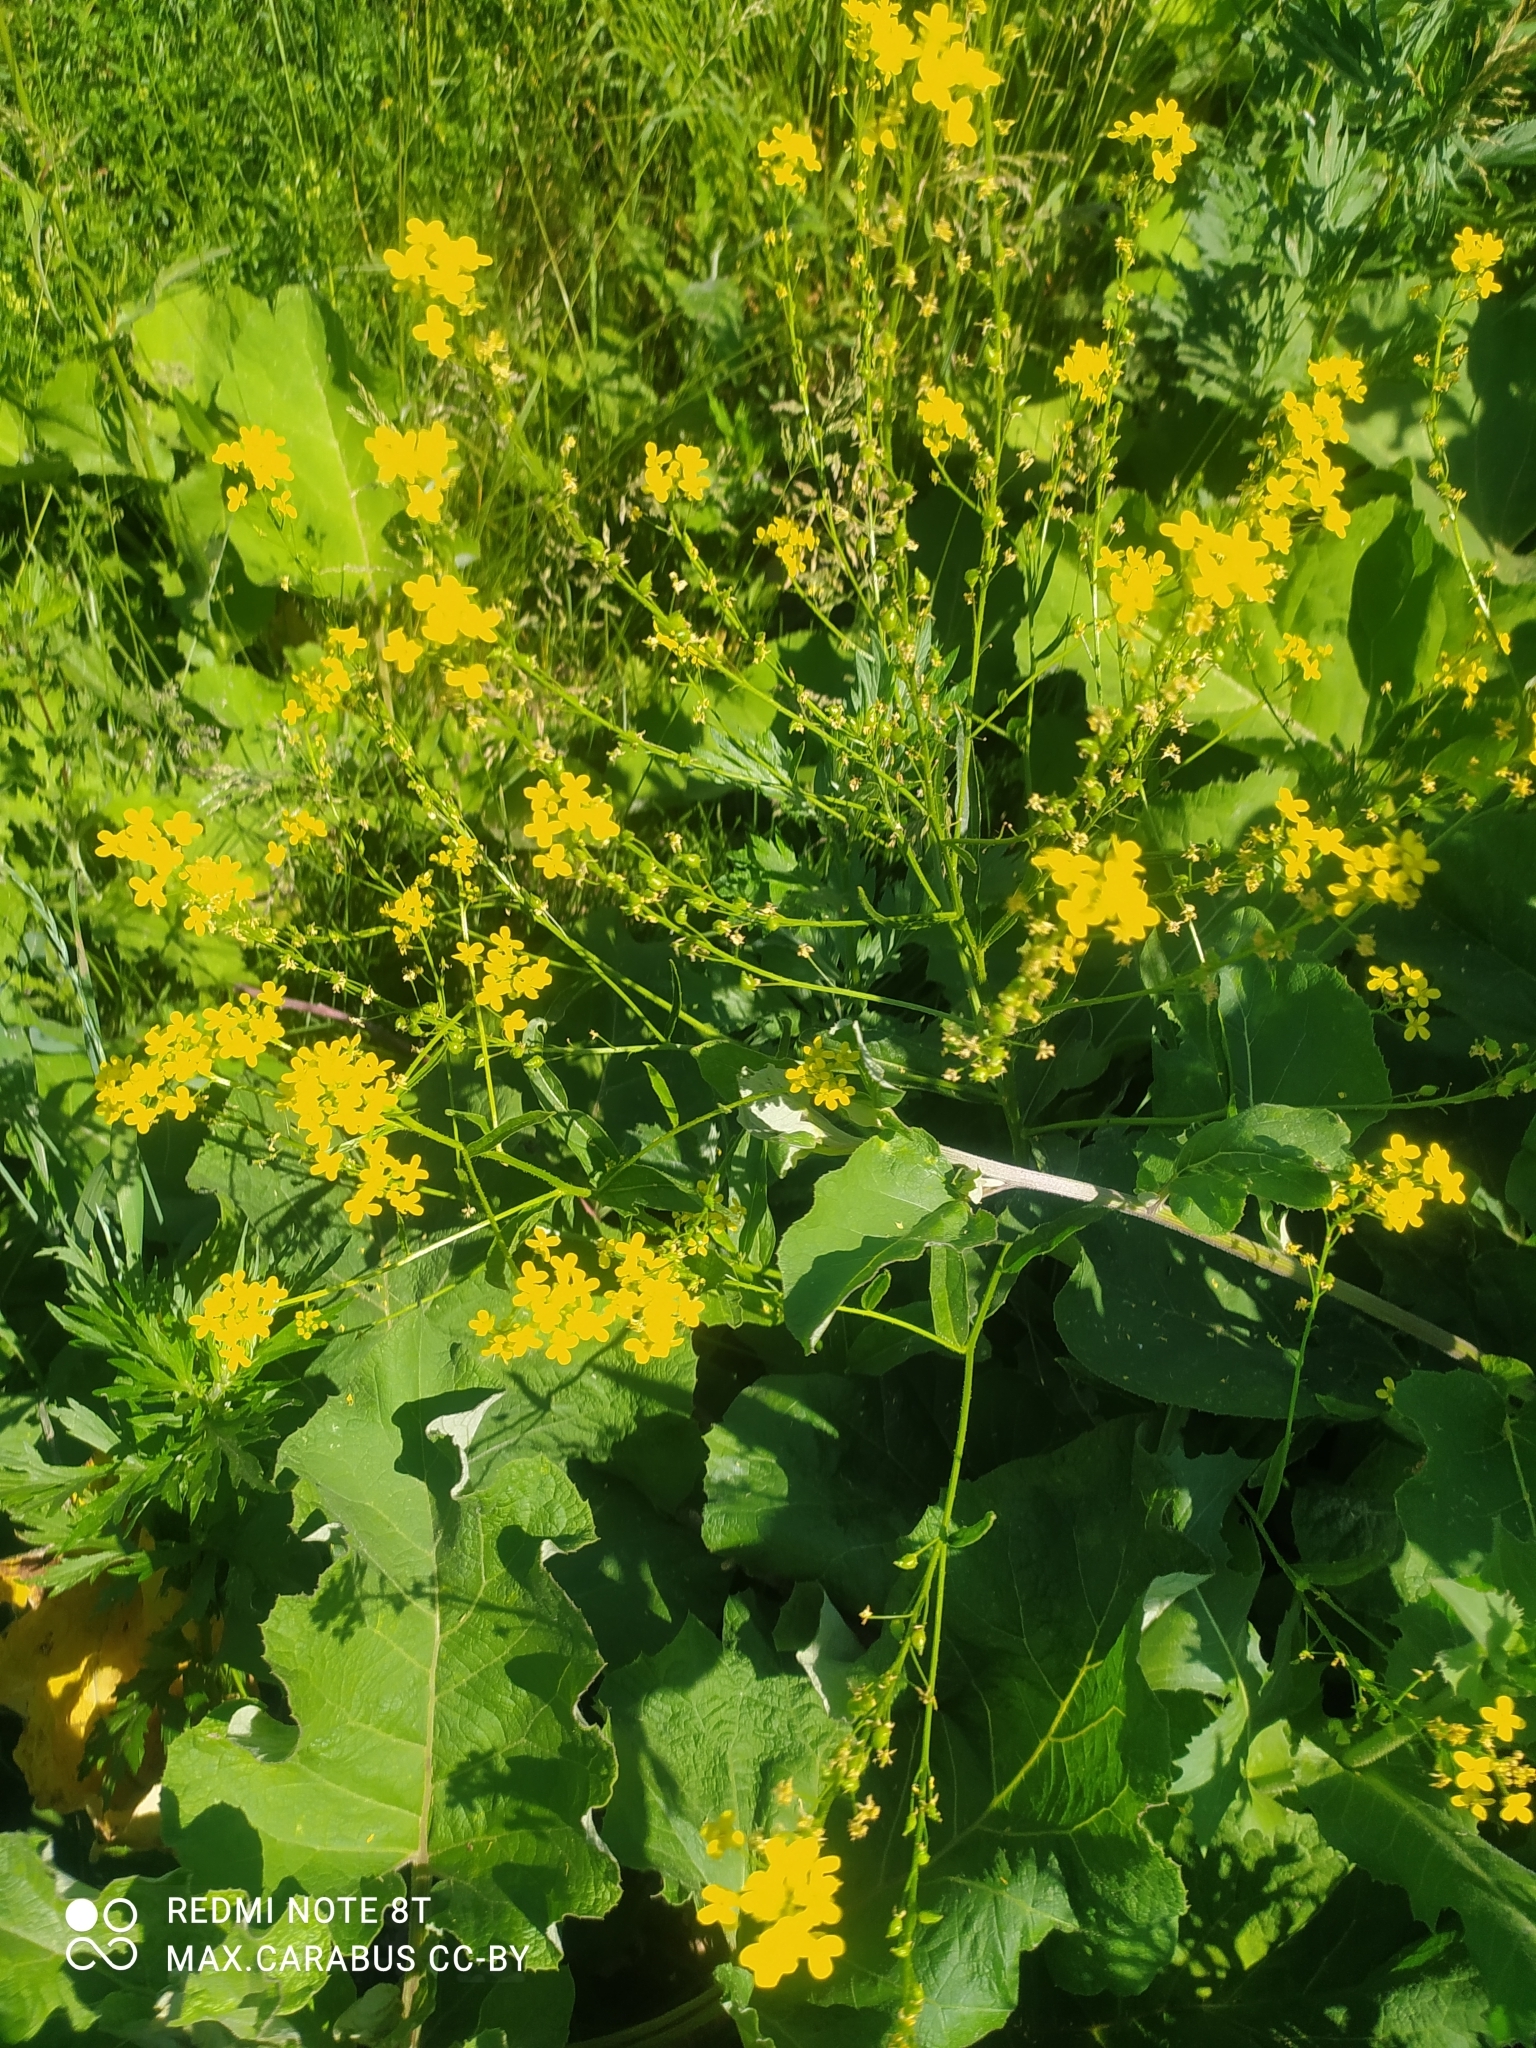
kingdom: Plantae
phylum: Tracheophyta
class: Magnoliopsida
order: Brassicales
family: Brassicaceae
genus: Bunias
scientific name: Bunias orientalis
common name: Warty-cabbage
